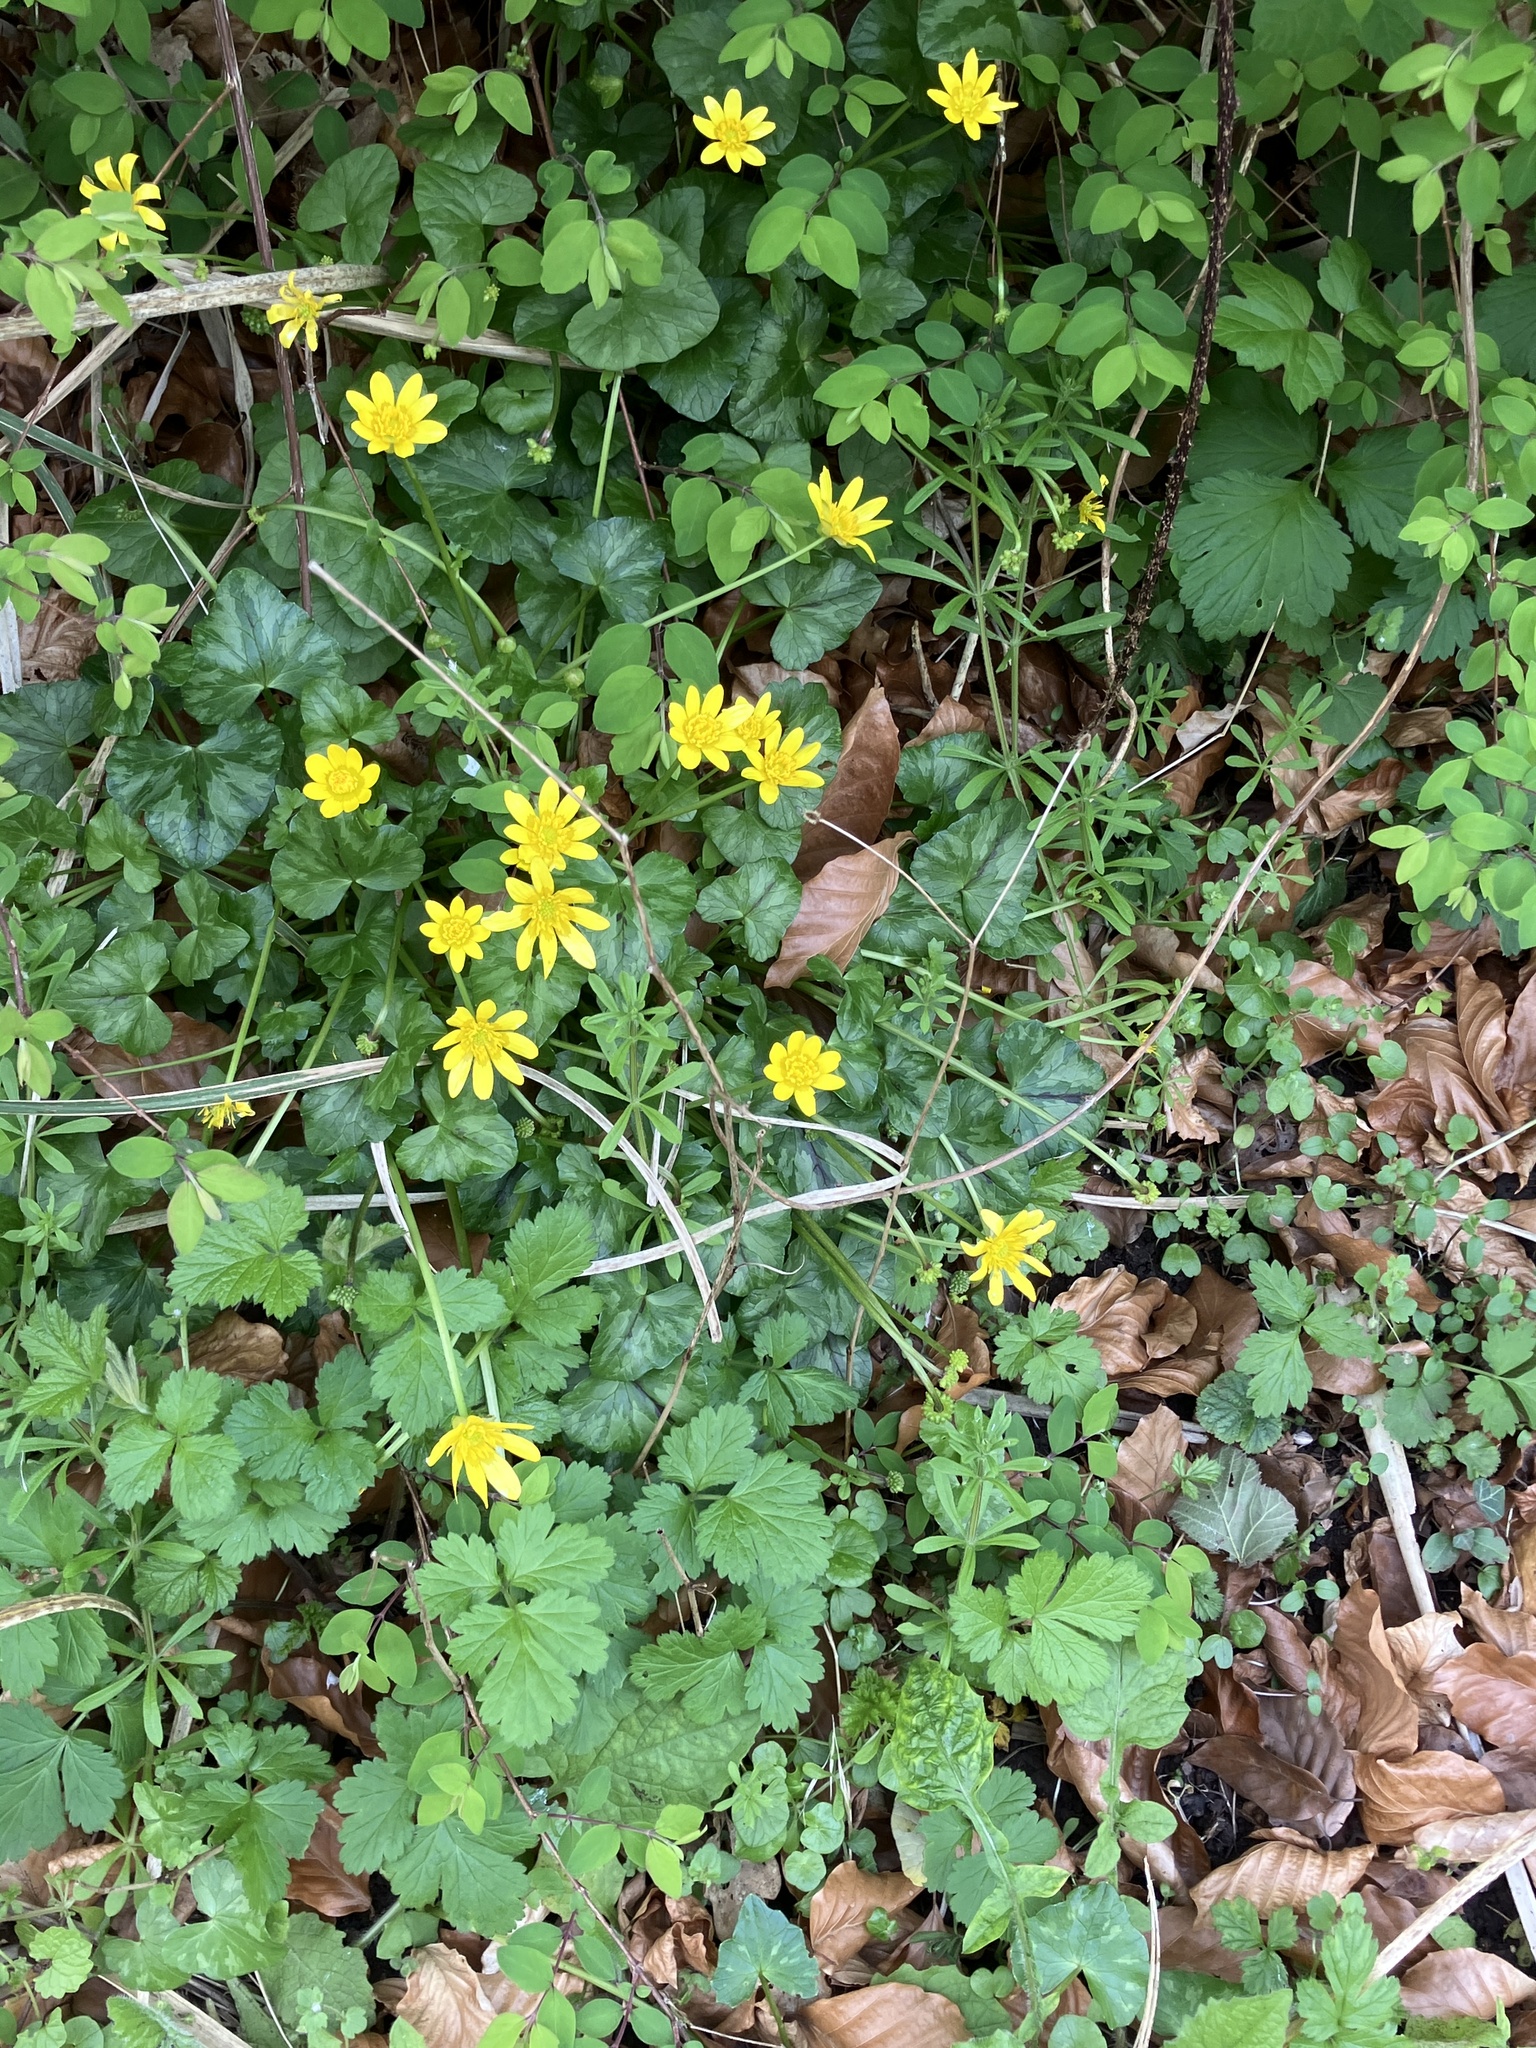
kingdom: Plantae
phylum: Tracheophyta
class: Magnoliopsida
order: Ranunculales
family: Ranunculaceae
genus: Ficaria
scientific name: Ficaria verna
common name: Lesser celandine
